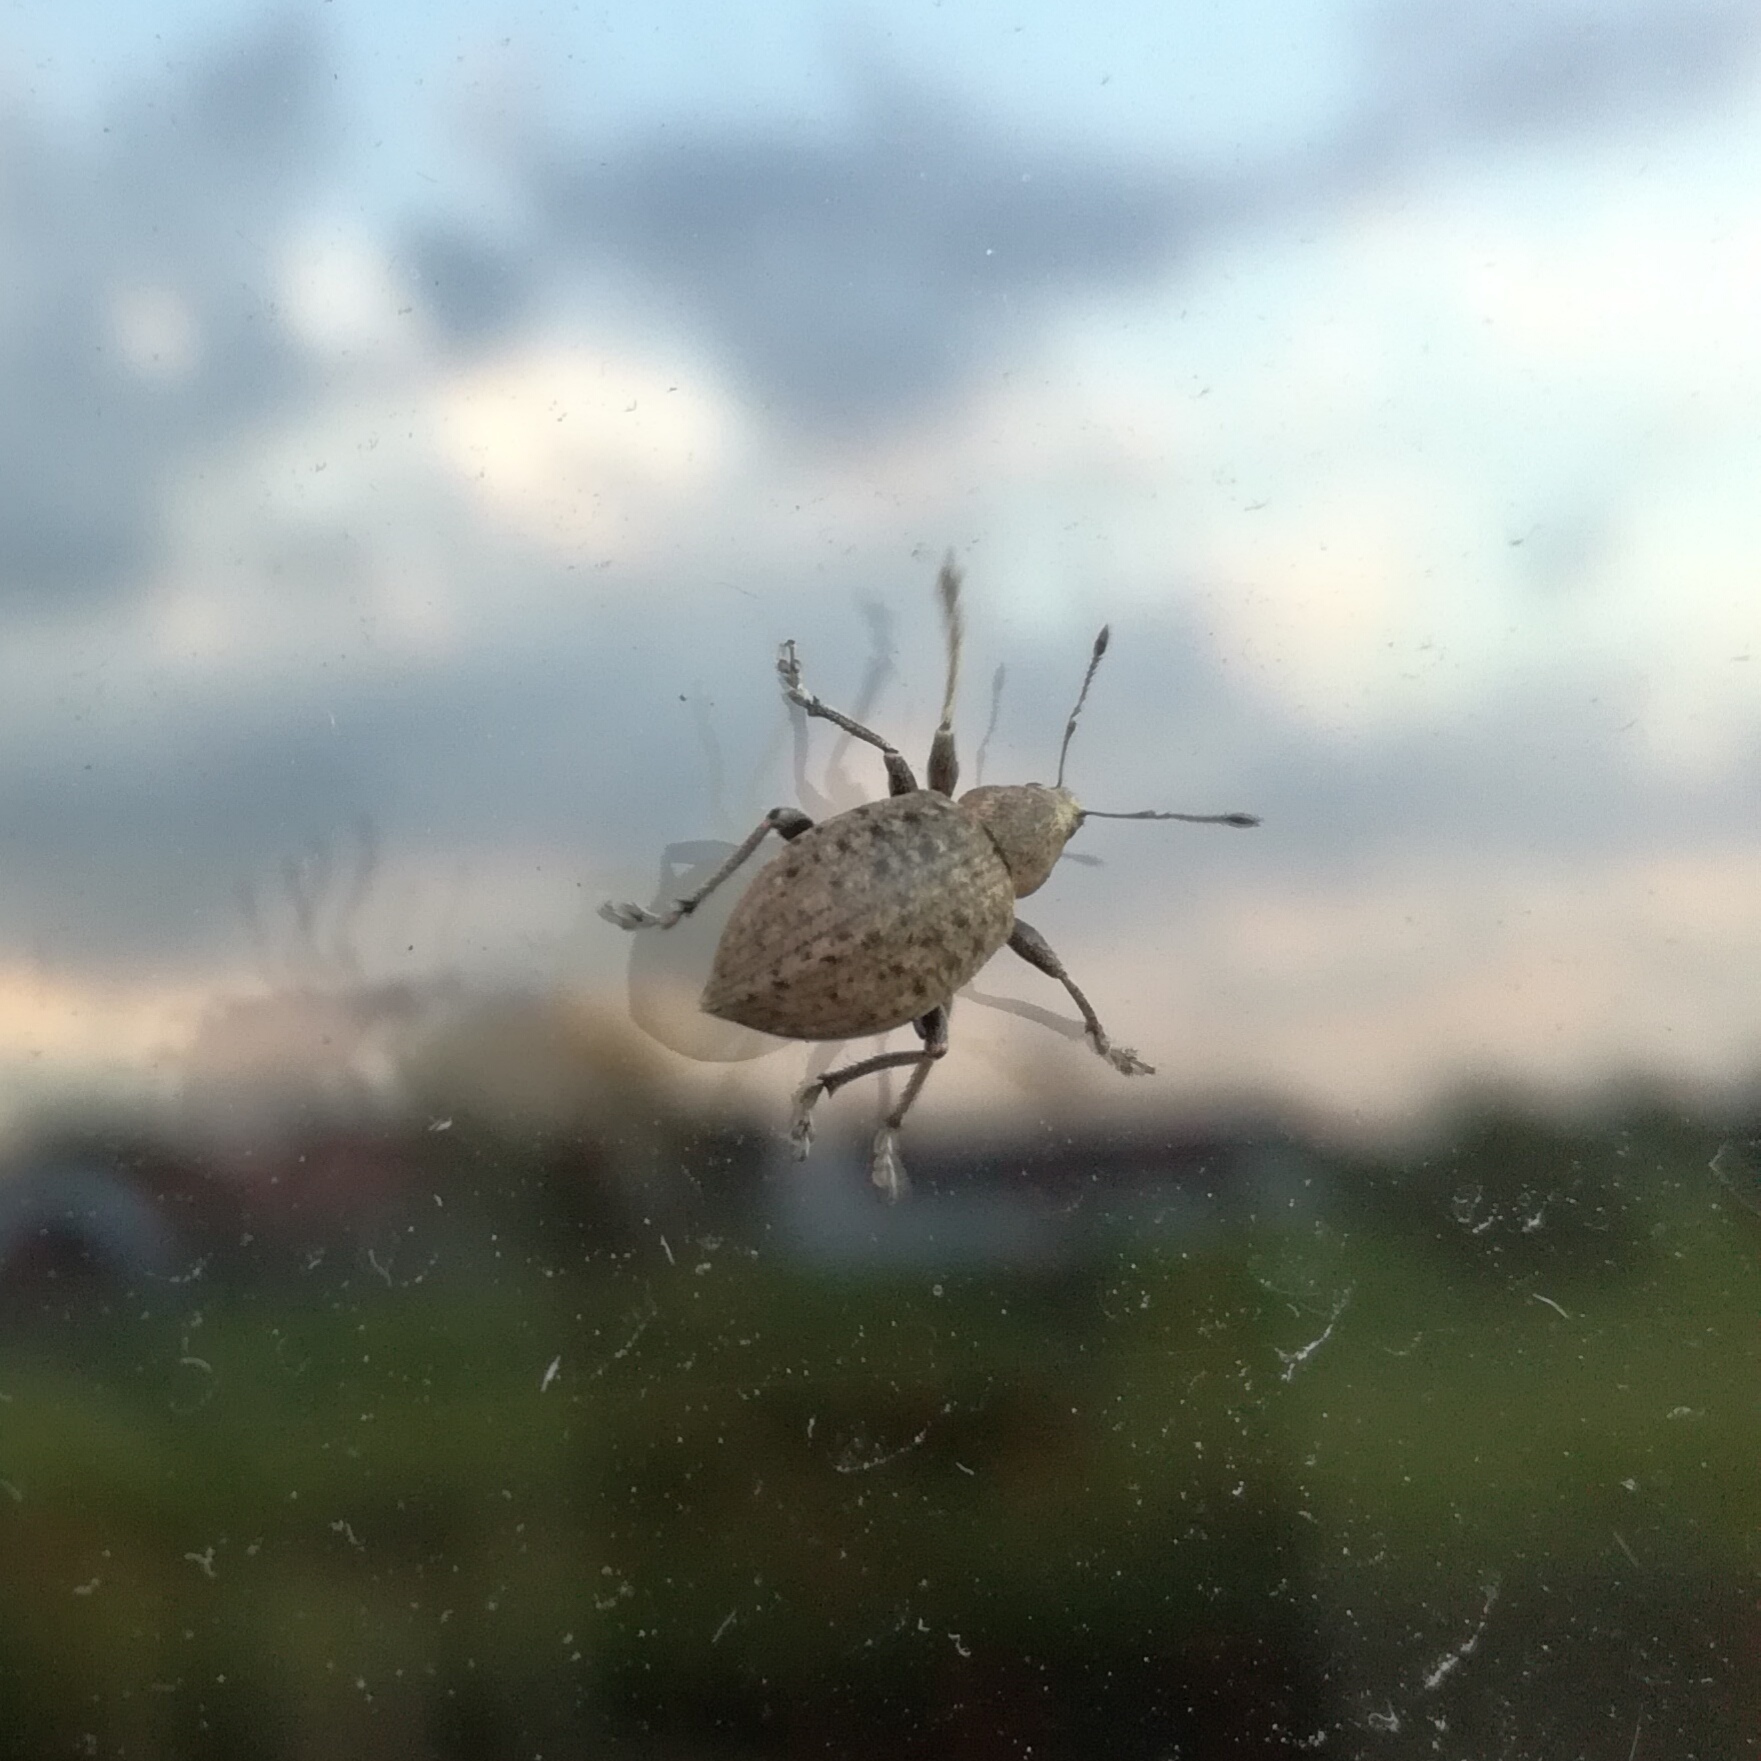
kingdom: Animalia
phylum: Arthropoda
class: Insecta
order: Coleoptera
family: Curculionidae
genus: Liophloeus
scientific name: Liophloeus tessulatus
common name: Weevil
